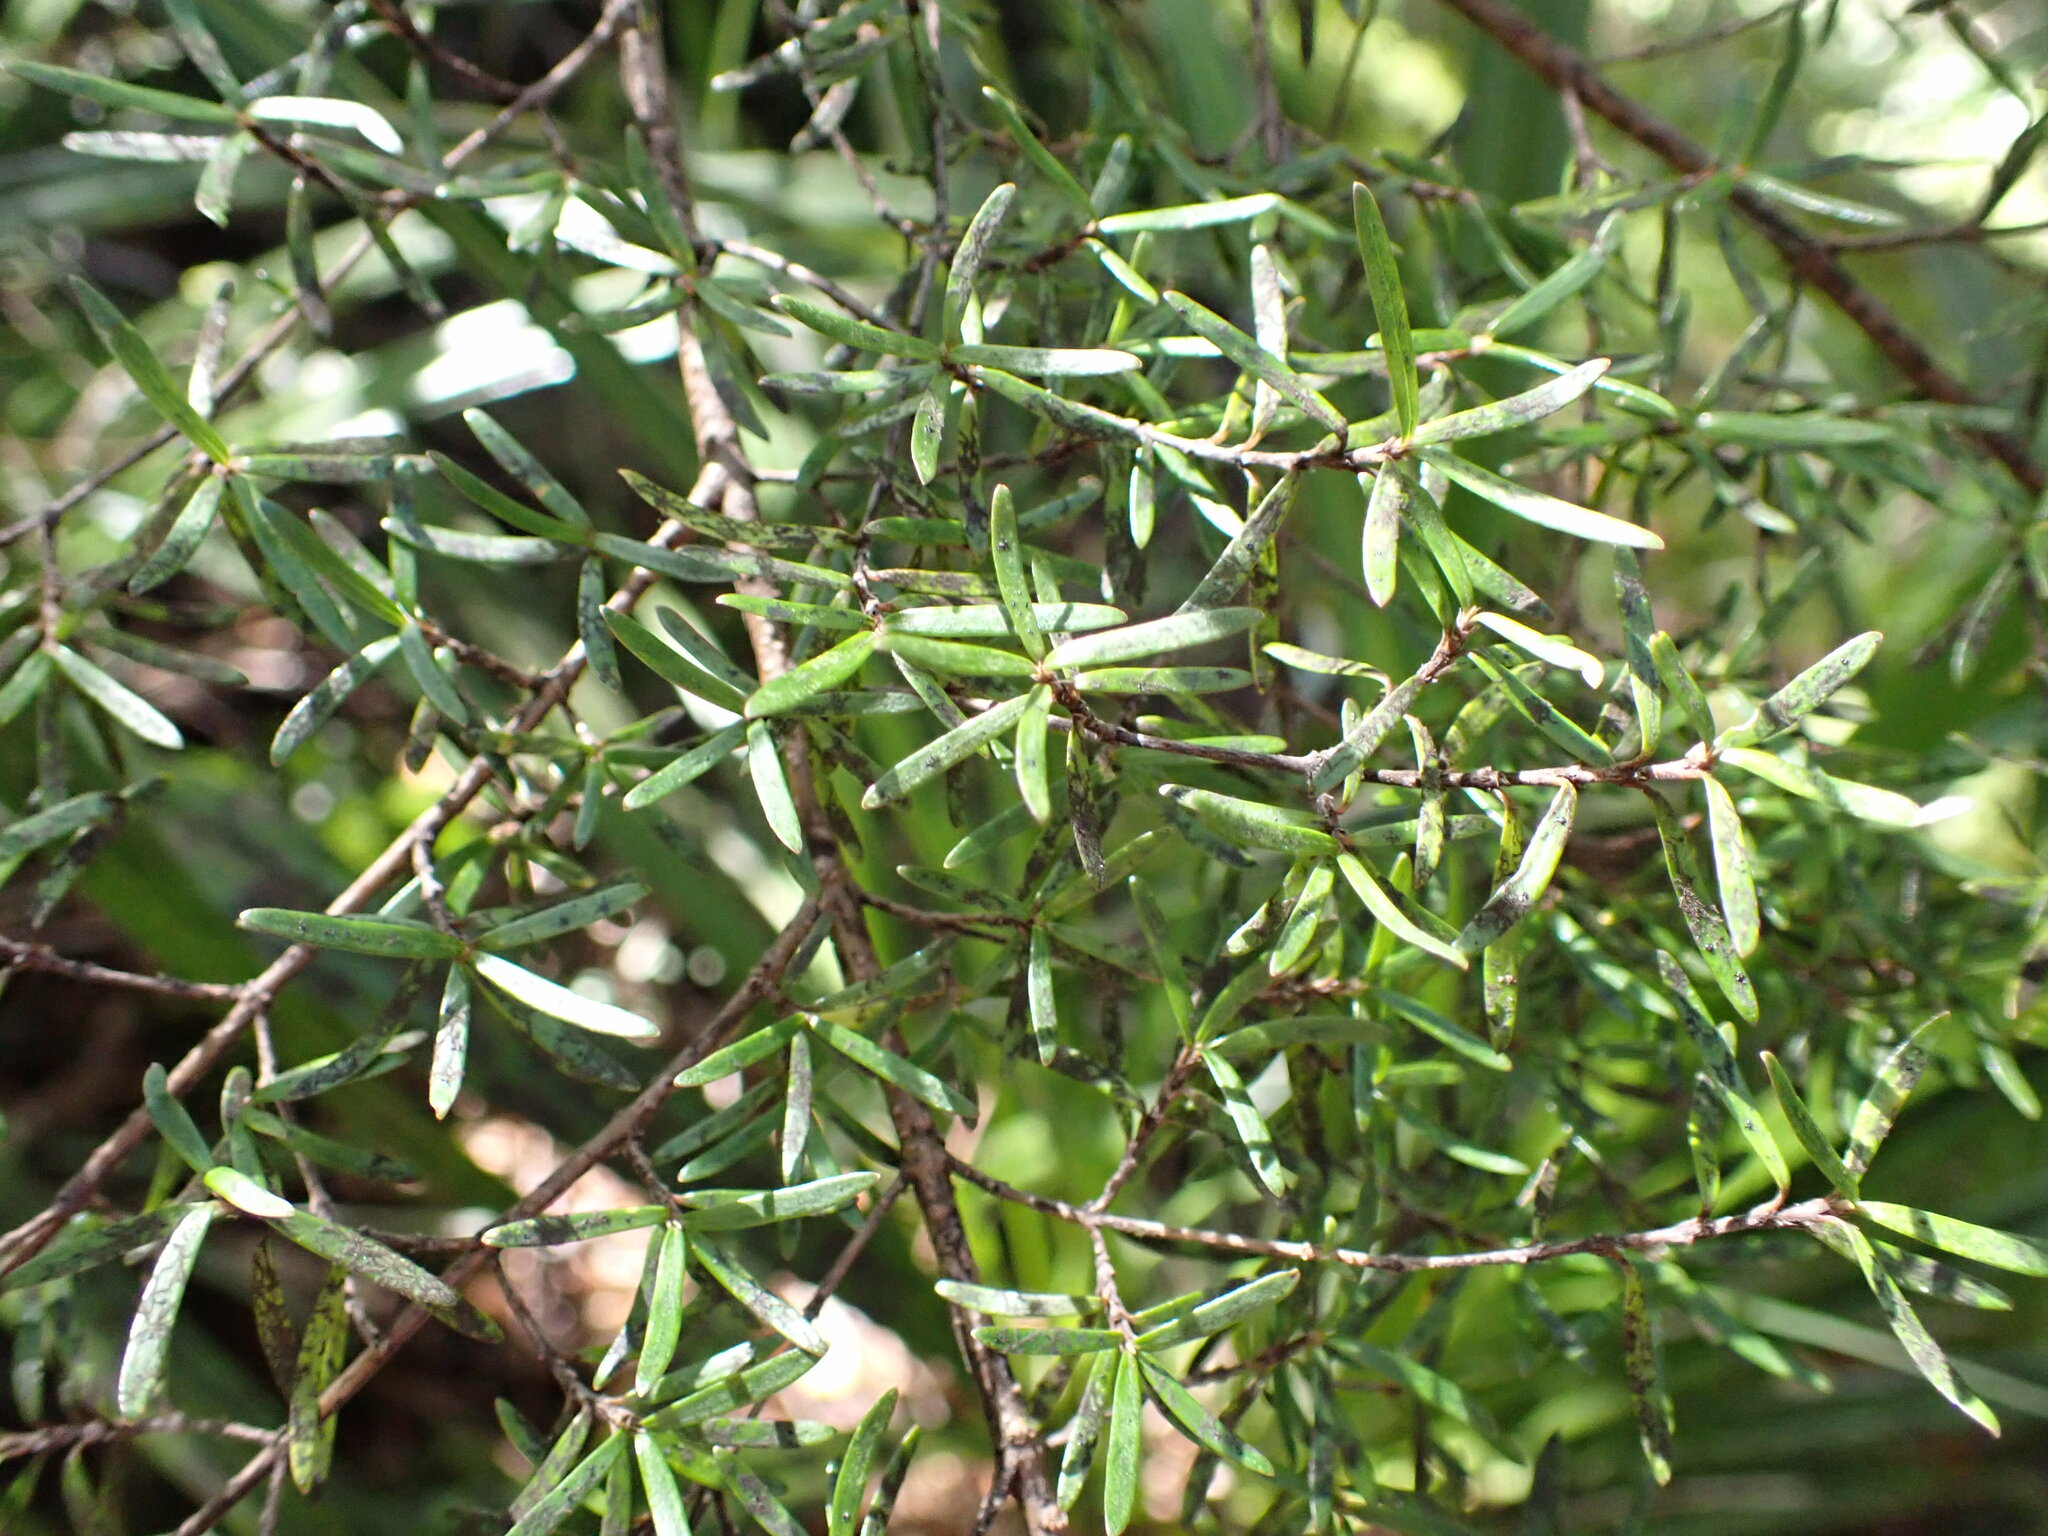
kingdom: Plantae
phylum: Tracheophyta
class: Magnoliopsida
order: Gentianales
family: Rubiaceae
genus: Coprosma
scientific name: Coprosma microcarpa
